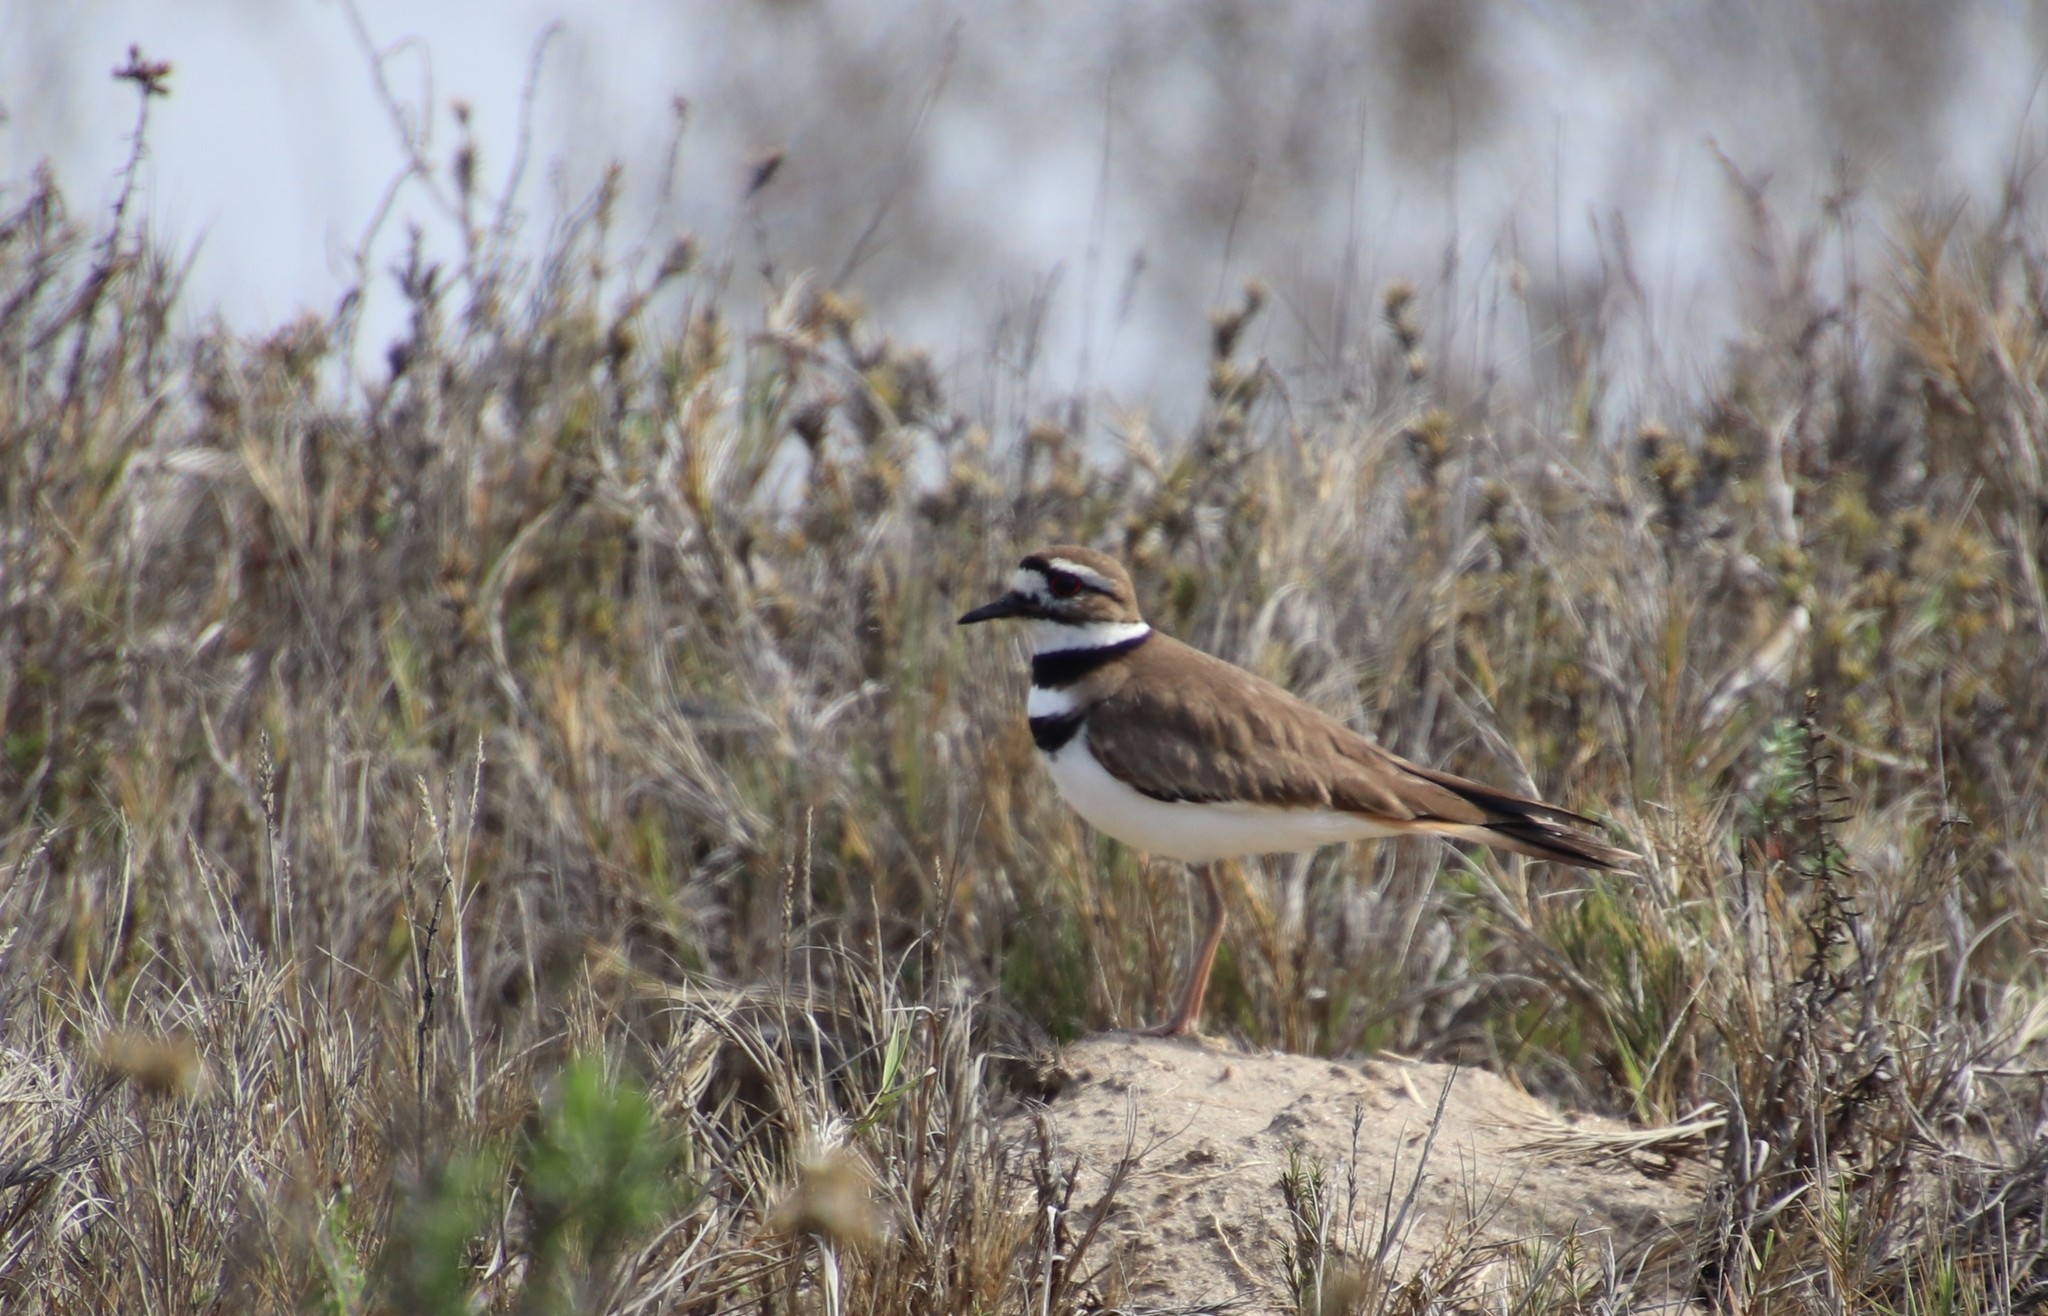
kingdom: Animalia
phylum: Chordata
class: Aves
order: Charadriiformes
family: Charadriidae
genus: Charadrius
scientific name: Charadrius vociferus
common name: Killdeer
